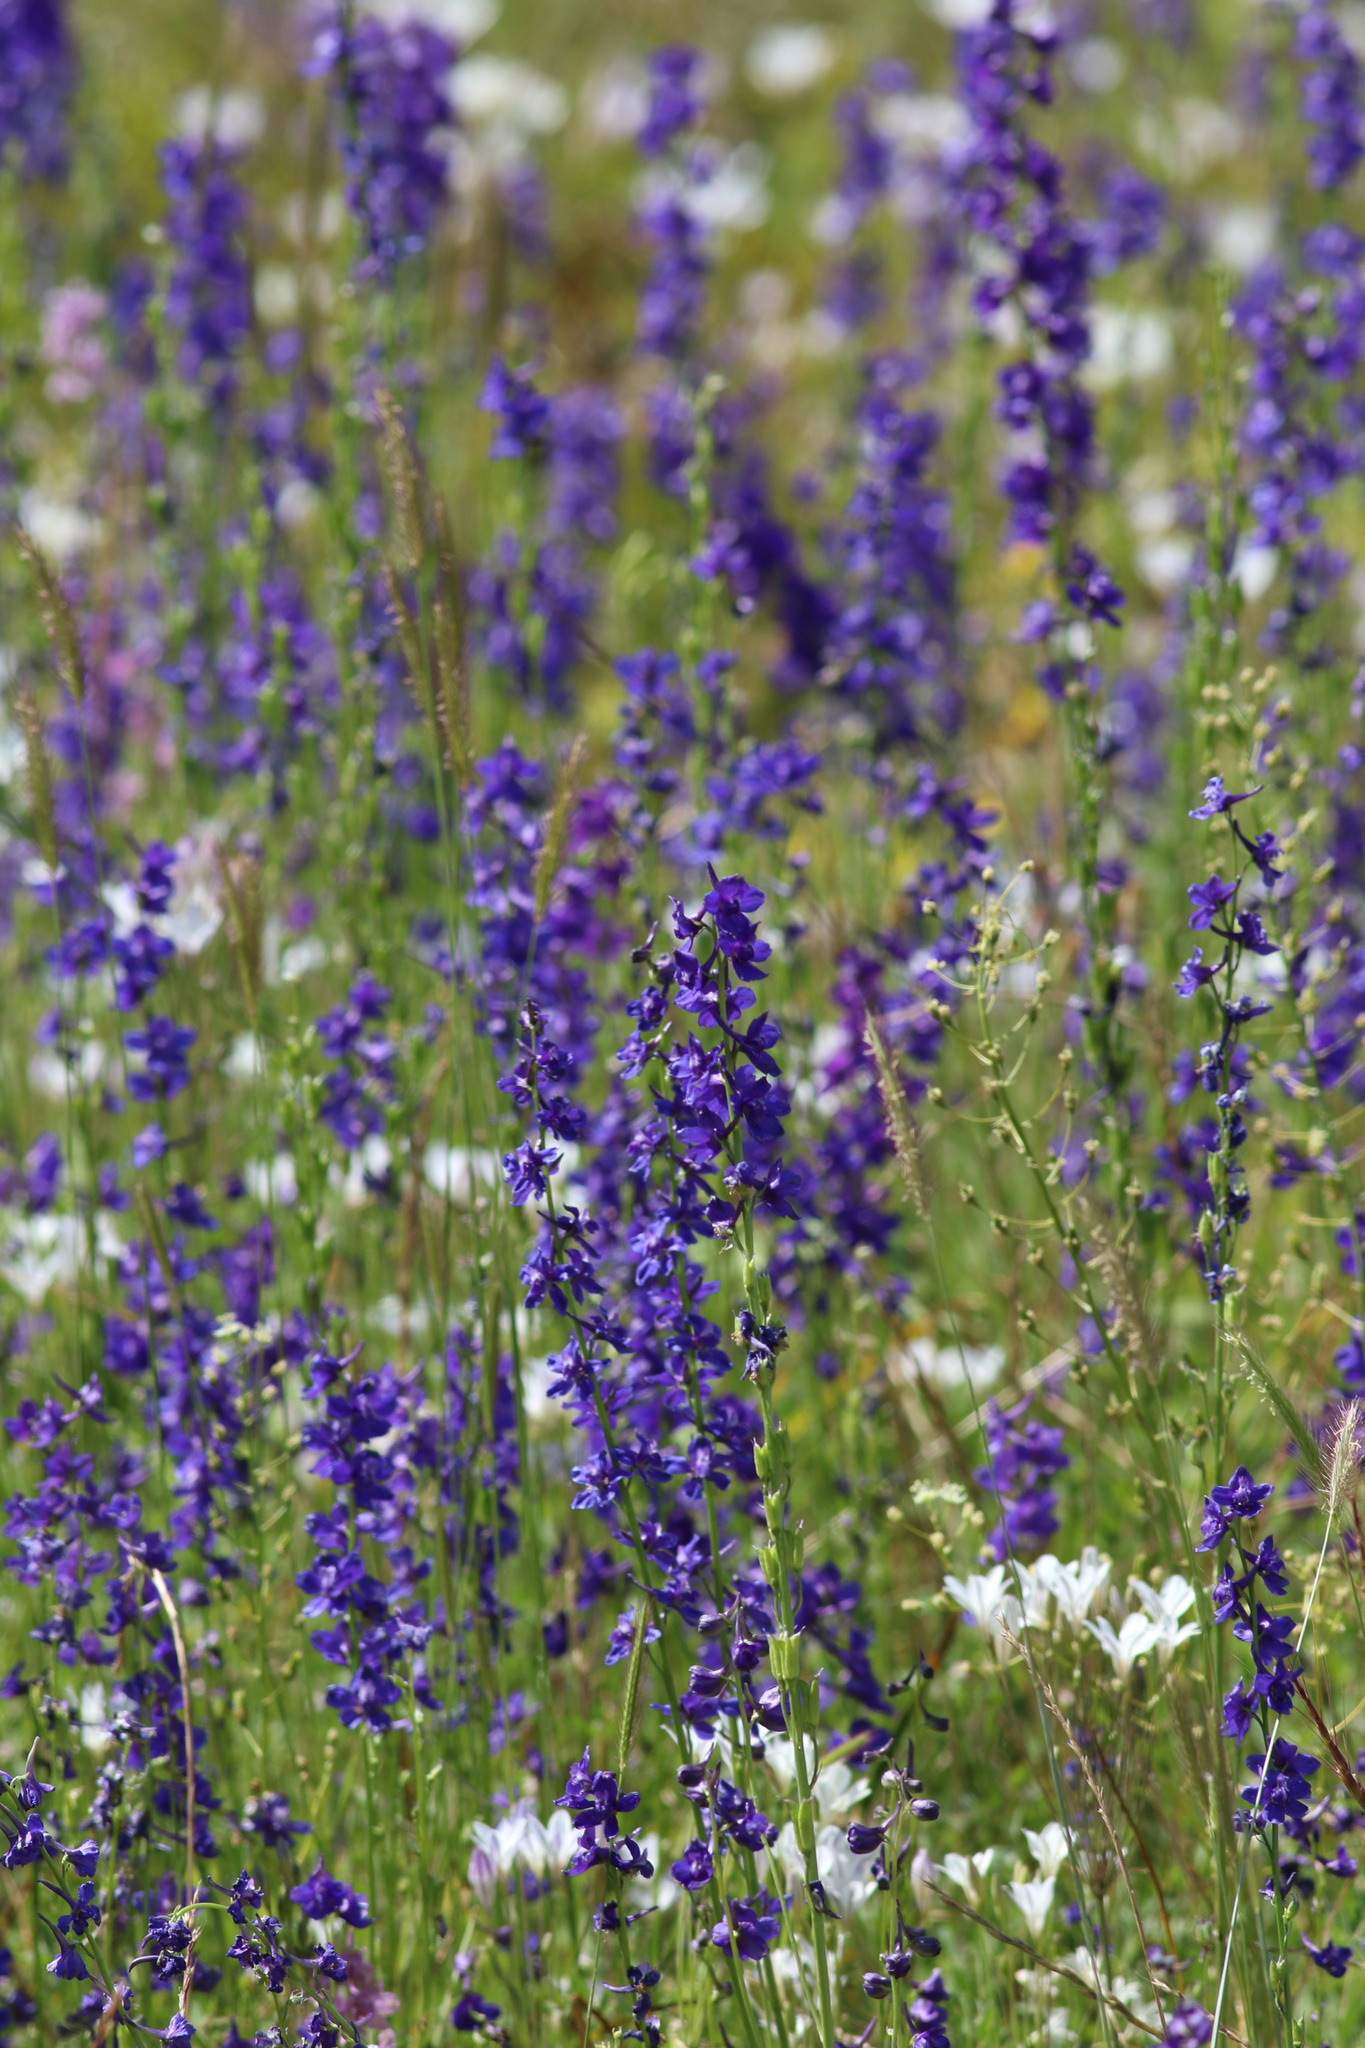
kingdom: Plantae
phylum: Tracheophyta
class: Magnoliopsida
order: Ranunculales
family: Ranunculaceae
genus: Delphinium
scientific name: Delphinium uliginosum
